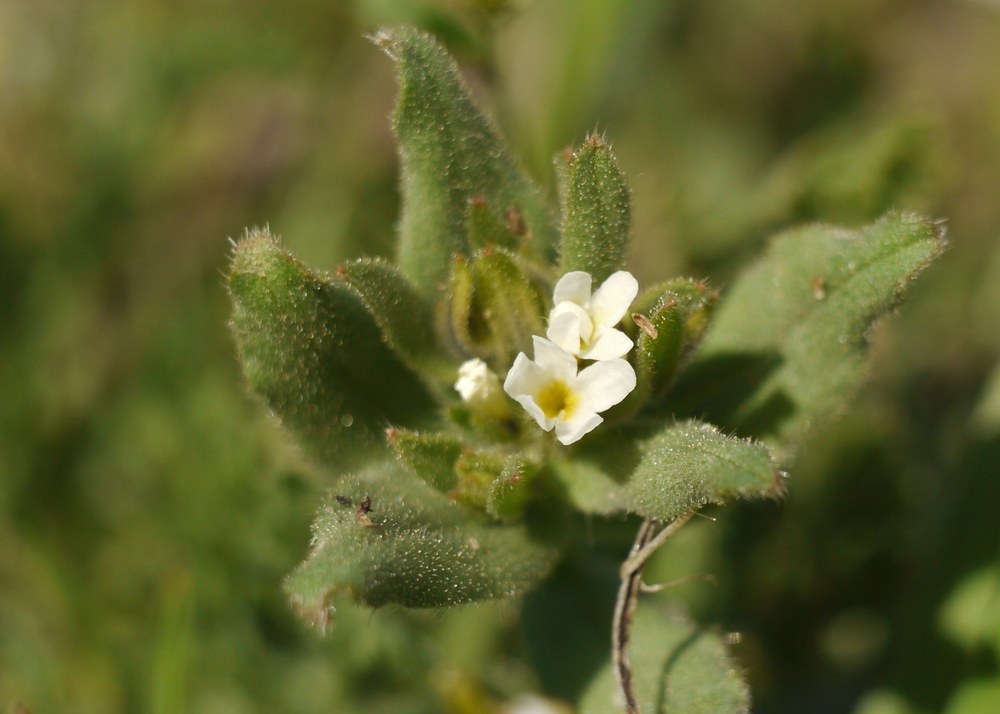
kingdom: Plantae
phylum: Tracheophyta
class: Magnoliopsida
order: Boraginales
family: Boraginaceae
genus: Buglossoides
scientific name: Buglossoides arvensis
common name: Corn gromwell
